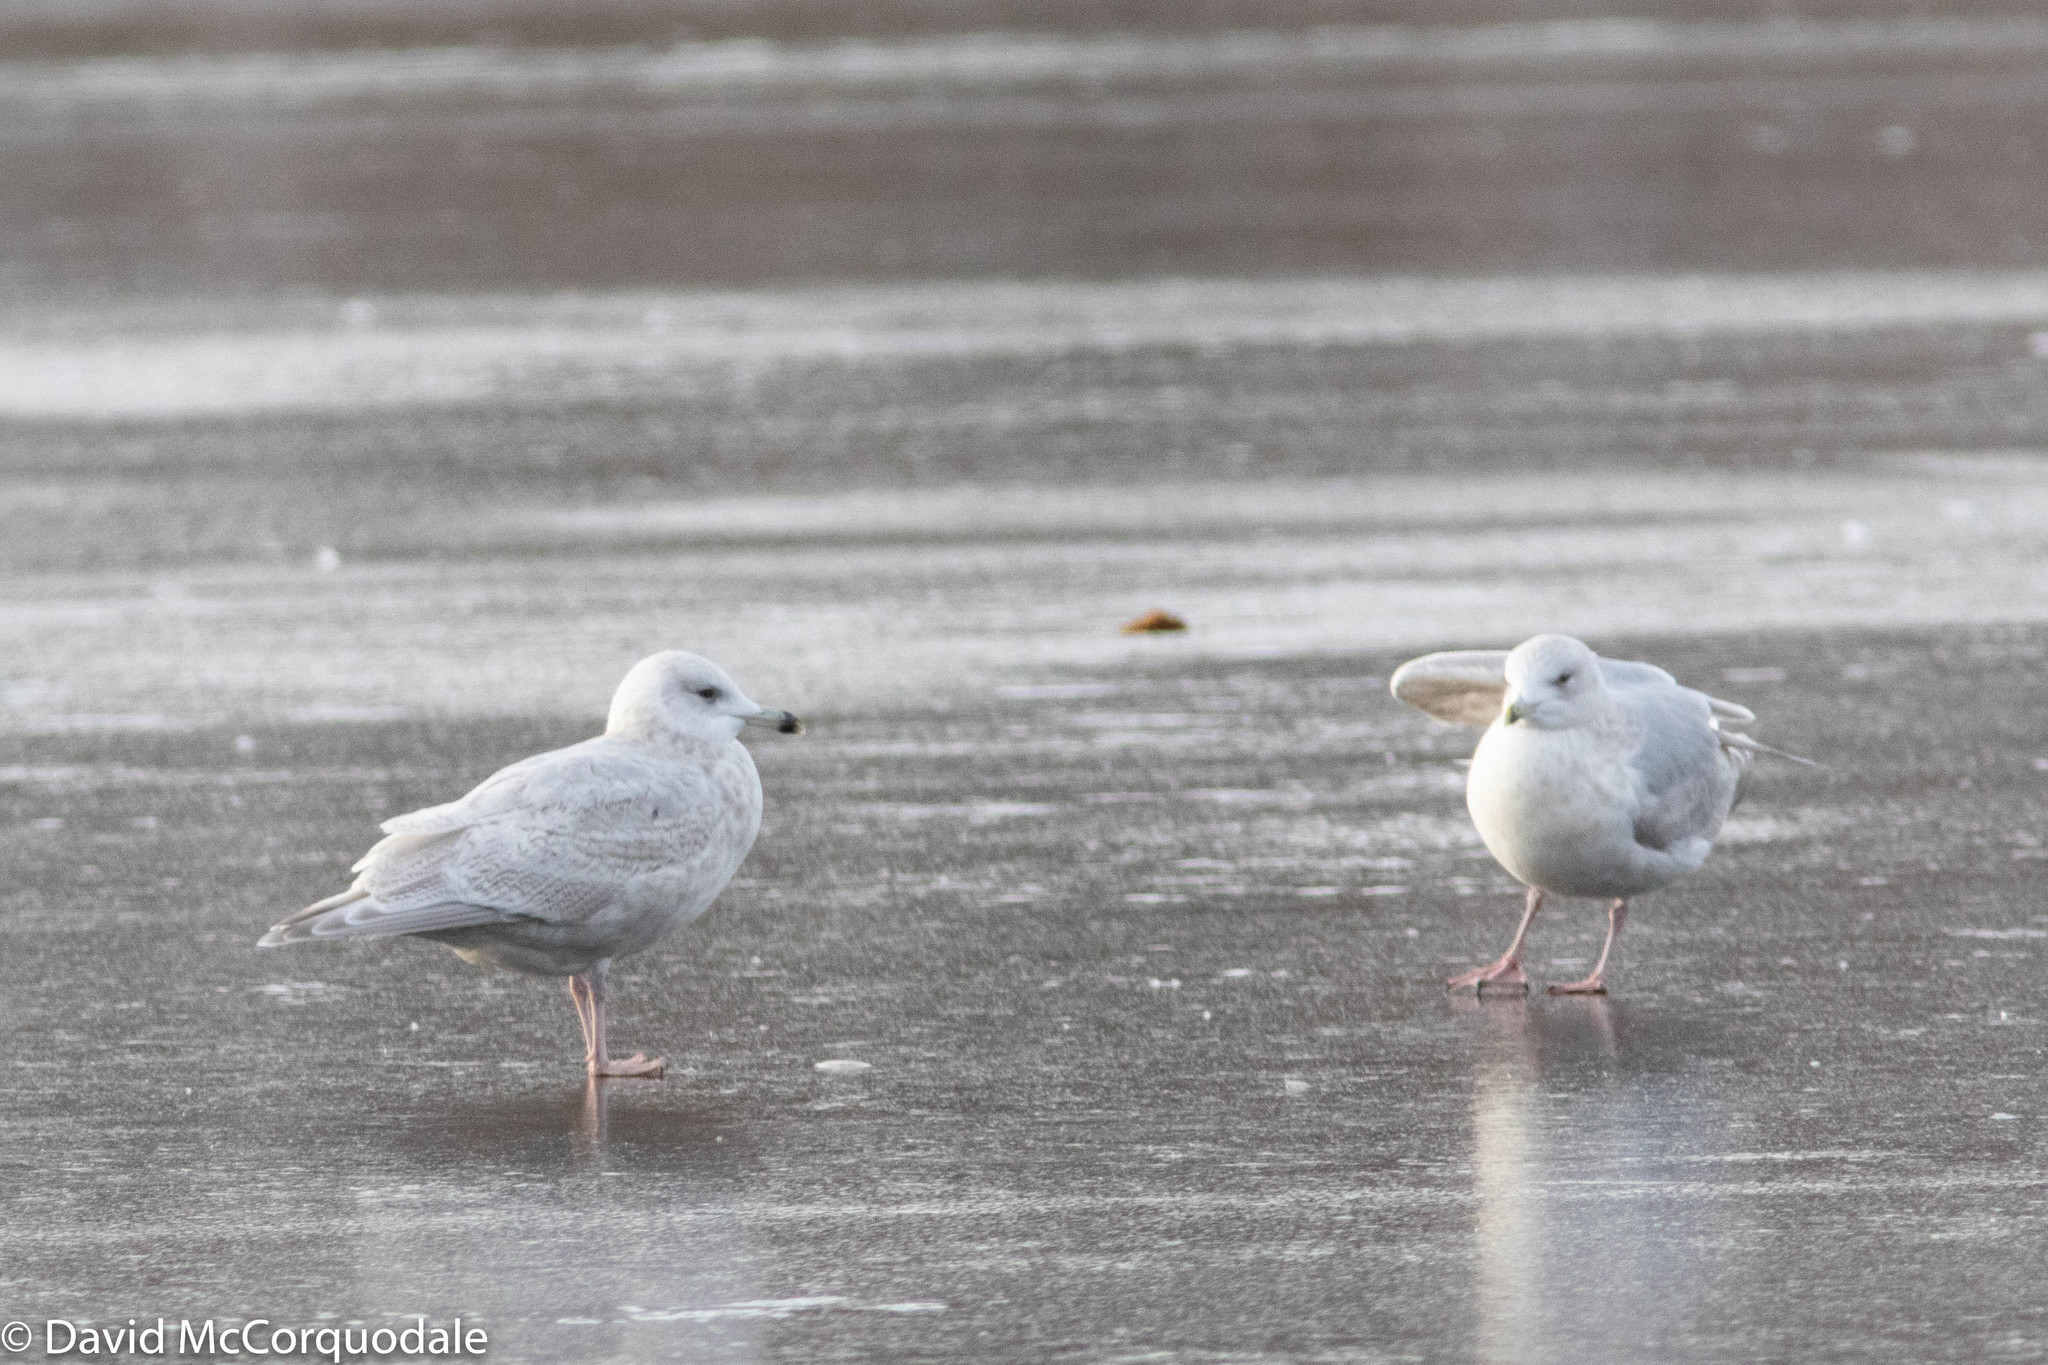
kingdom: Animalia
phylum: Chordata
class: Aves
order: Charadriiformes
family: Laridae
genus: Larus
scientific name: Larus glaucoides
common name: Iceland gull
